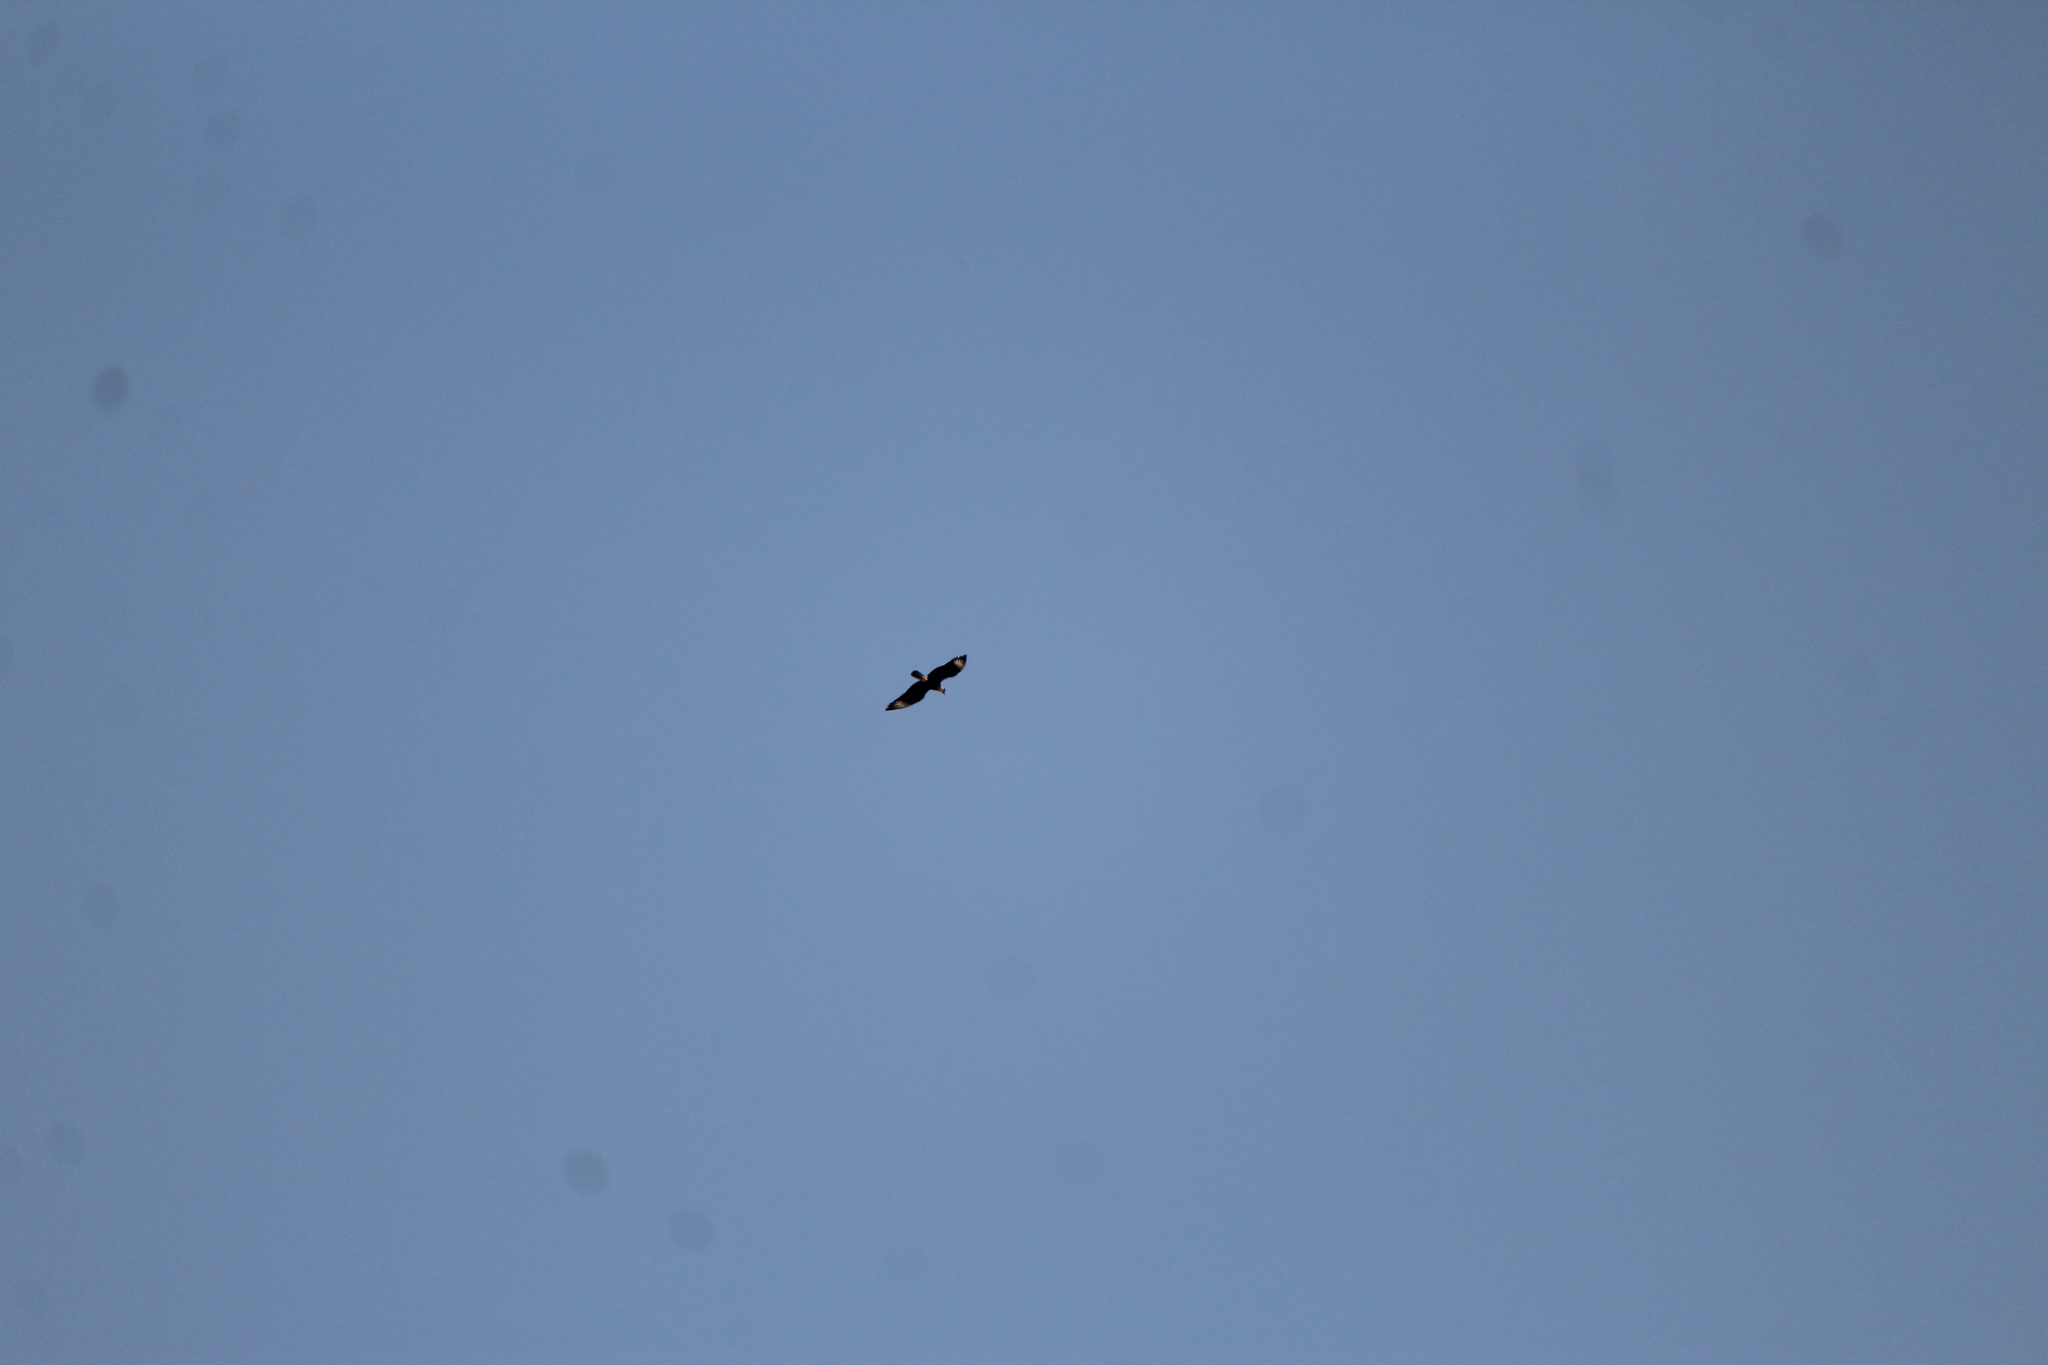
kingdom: Animalia
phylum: Chordata
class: Aves
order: Falconiformes
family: Falconidae
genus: Caracara
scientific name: Caracara plancus
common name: Southern caracara
